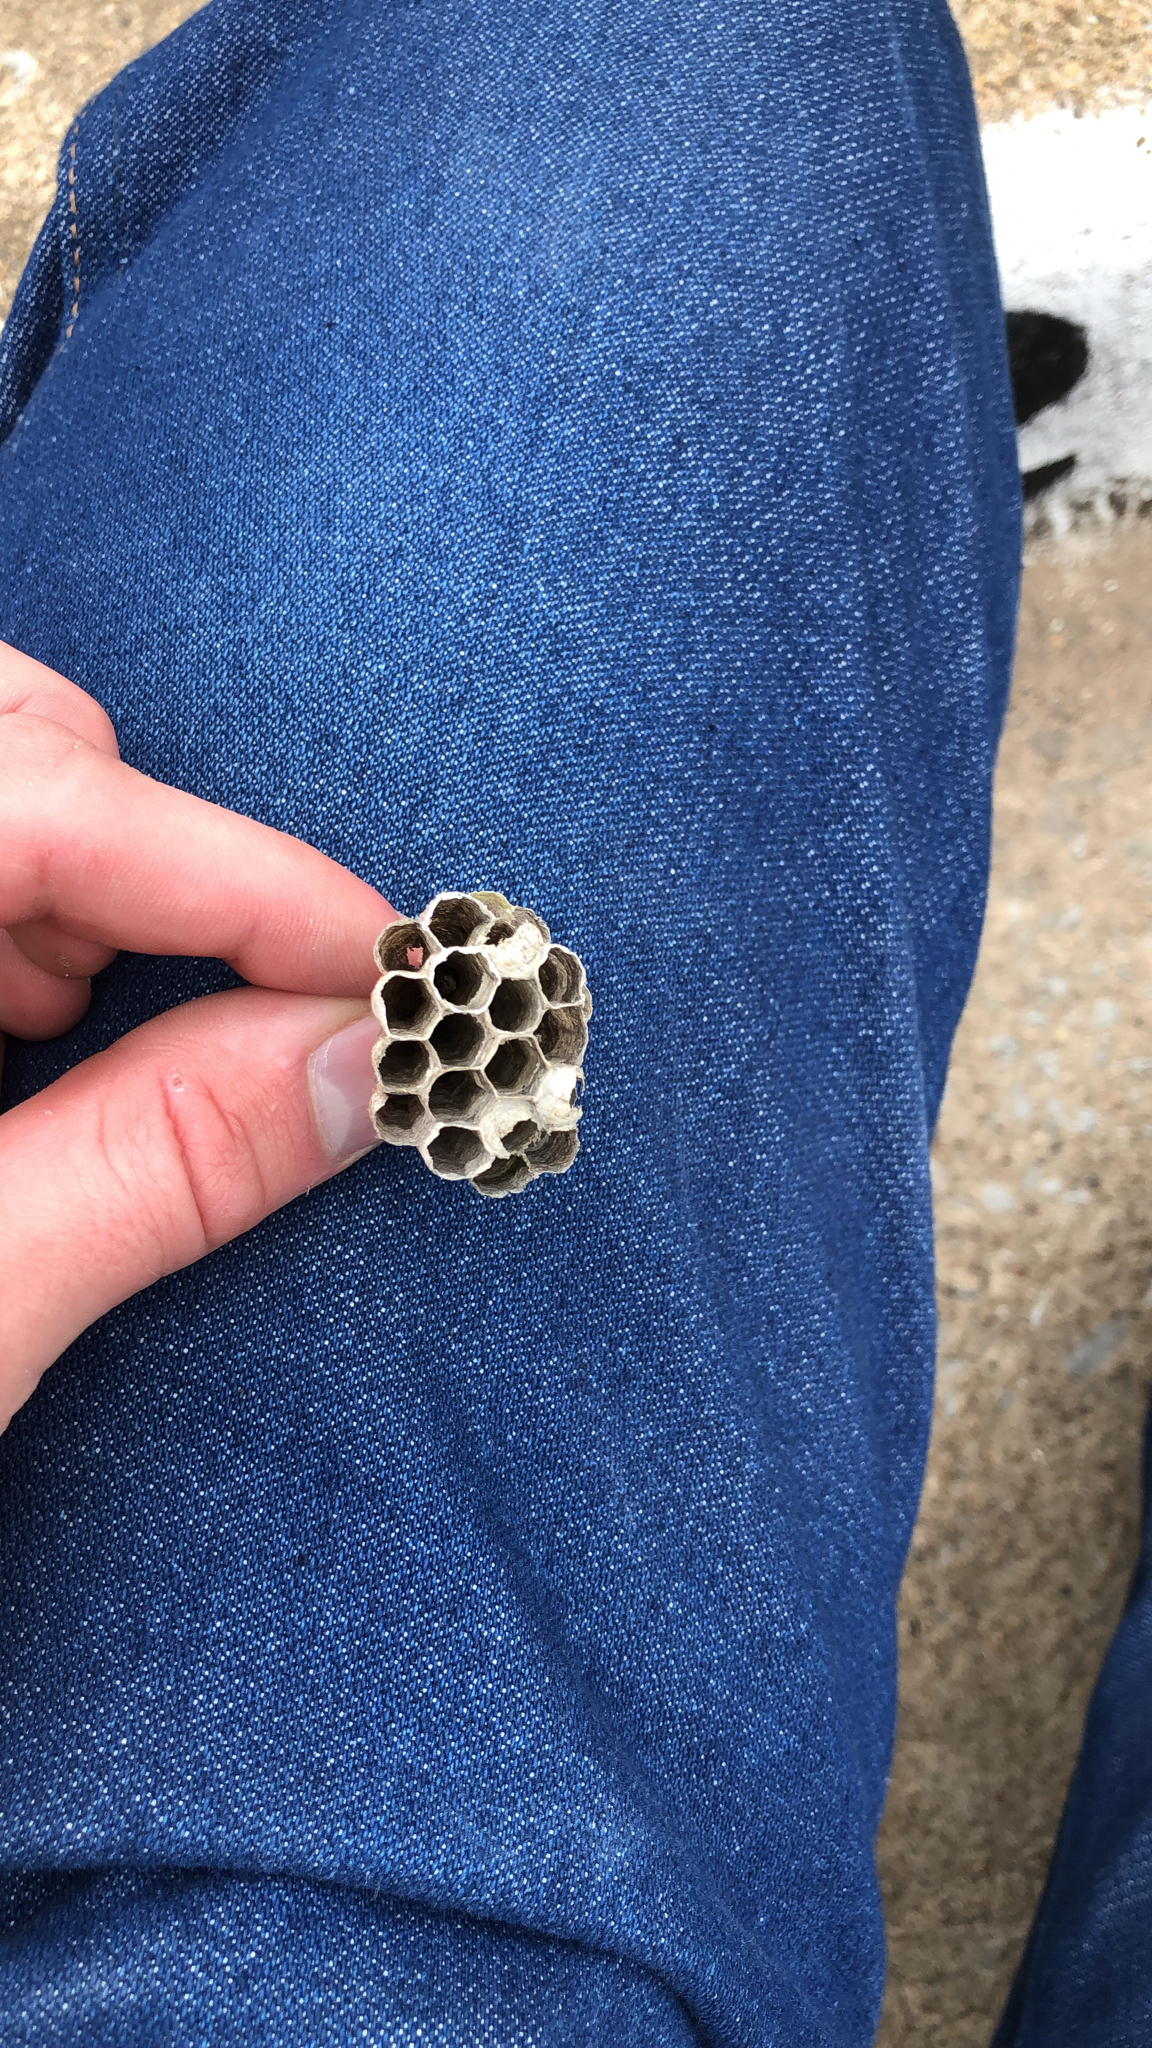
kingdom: Animalia
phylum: Arthropoda
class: Insecta
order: Hymenoptera
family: Vespidae
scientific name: Vespidae
